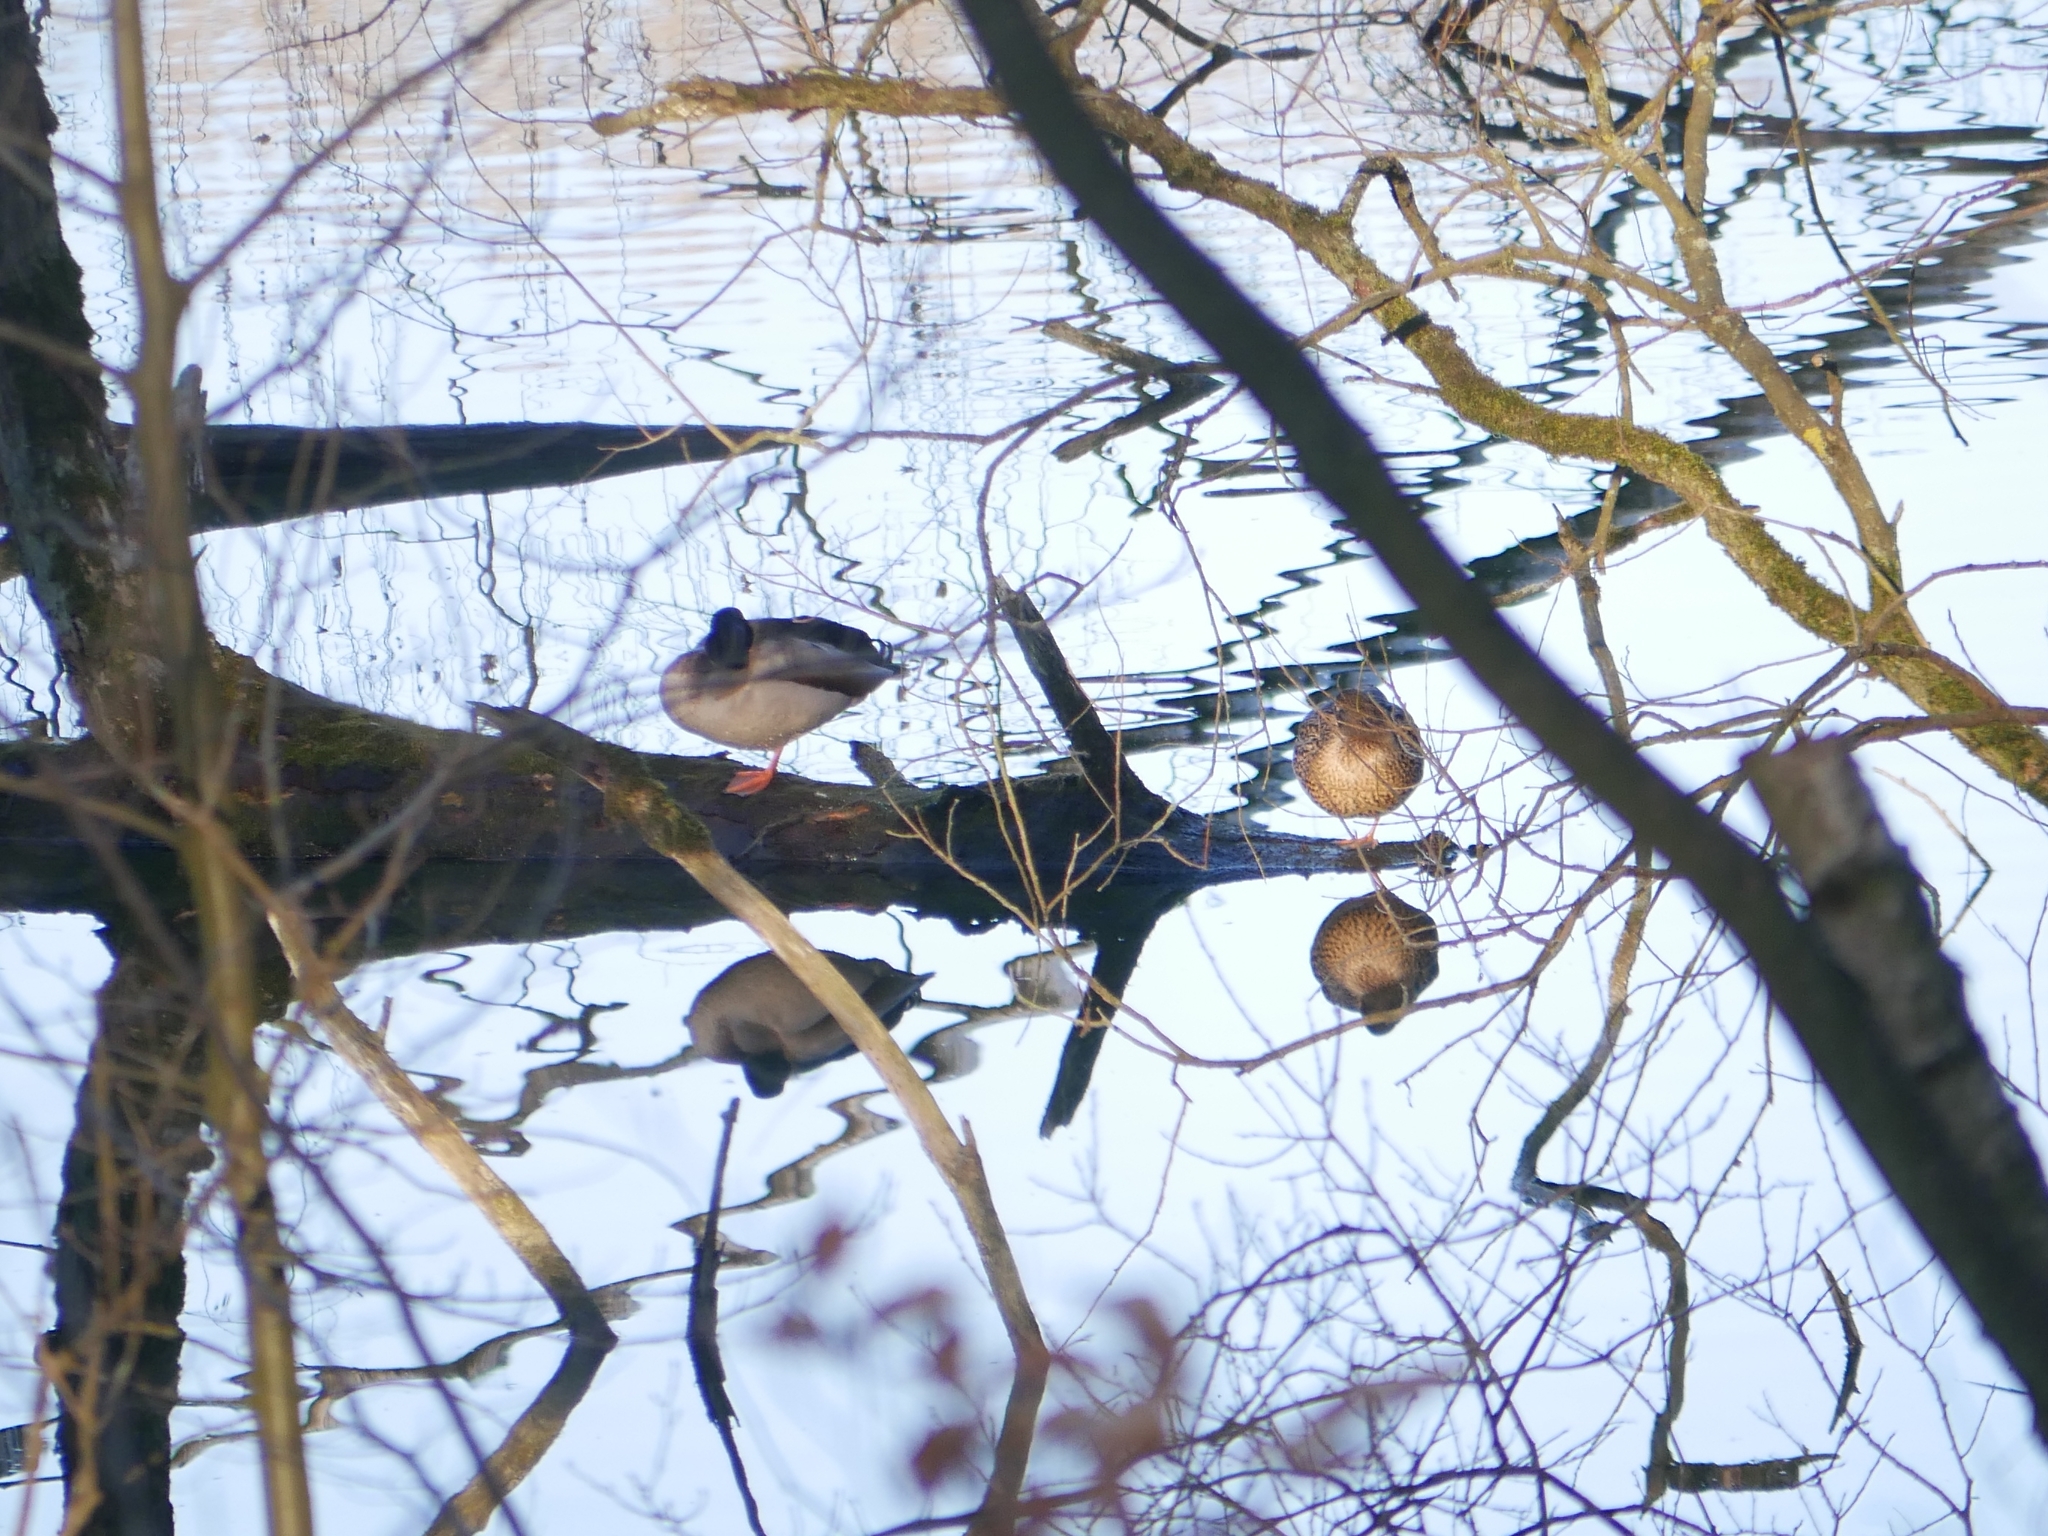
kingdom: Animalia
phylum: Chordata
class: Aves
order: Anseriformes
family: Anatidae
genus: Anas
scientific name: Anas platyrhynchos
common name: Mallard
